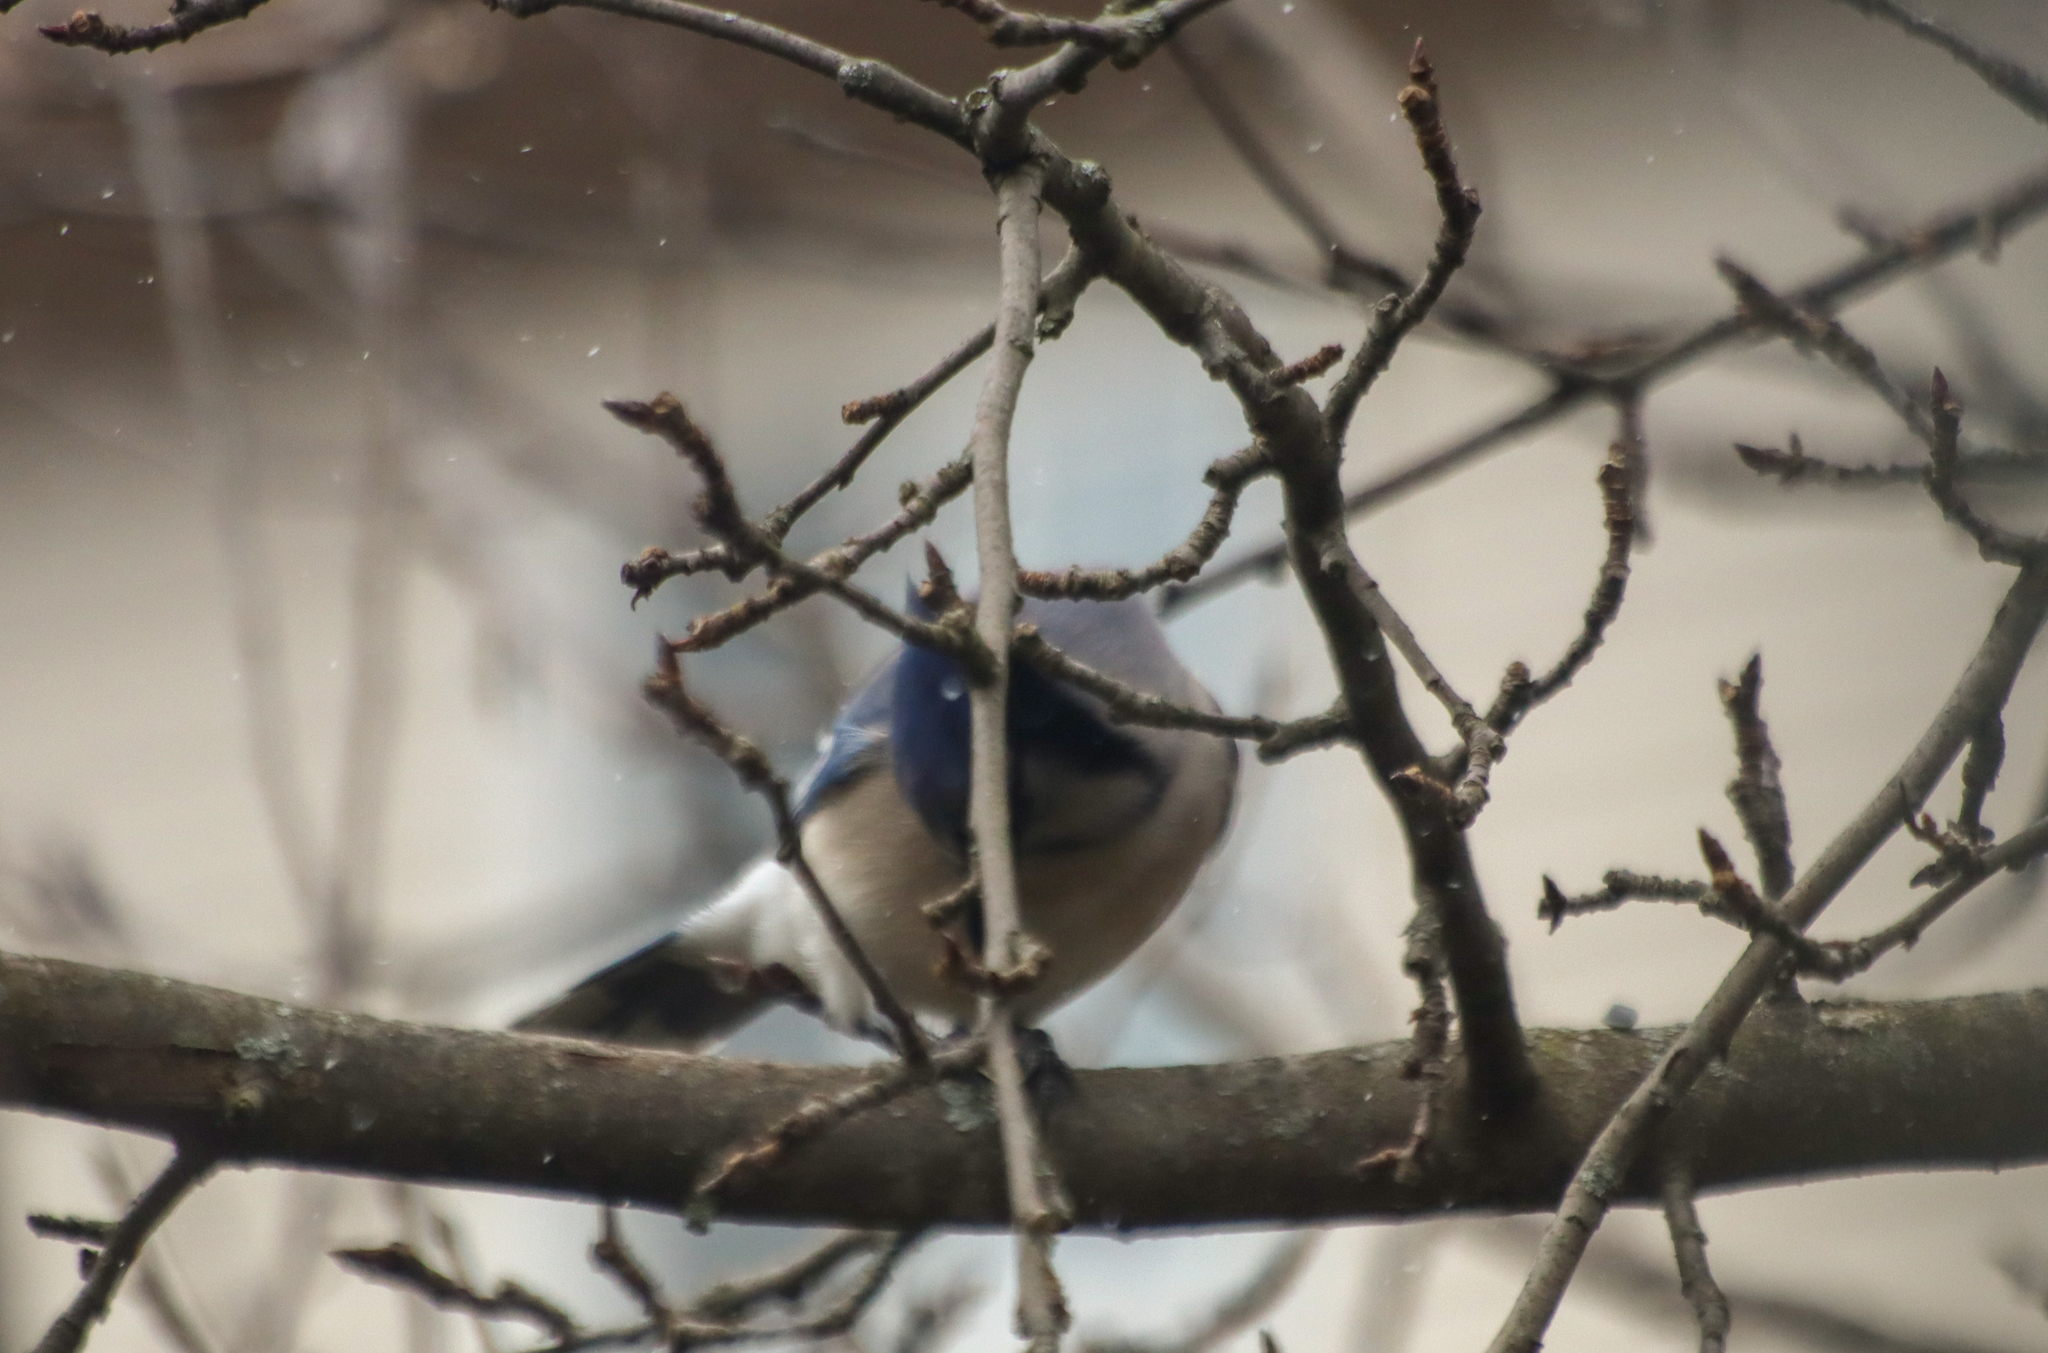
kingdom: Animalia
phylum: Chordata
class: Aves
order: Passeriformes
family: Corvidae
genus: Cyanocitta
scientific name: Cyanocitta cristata
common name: Blue jay
